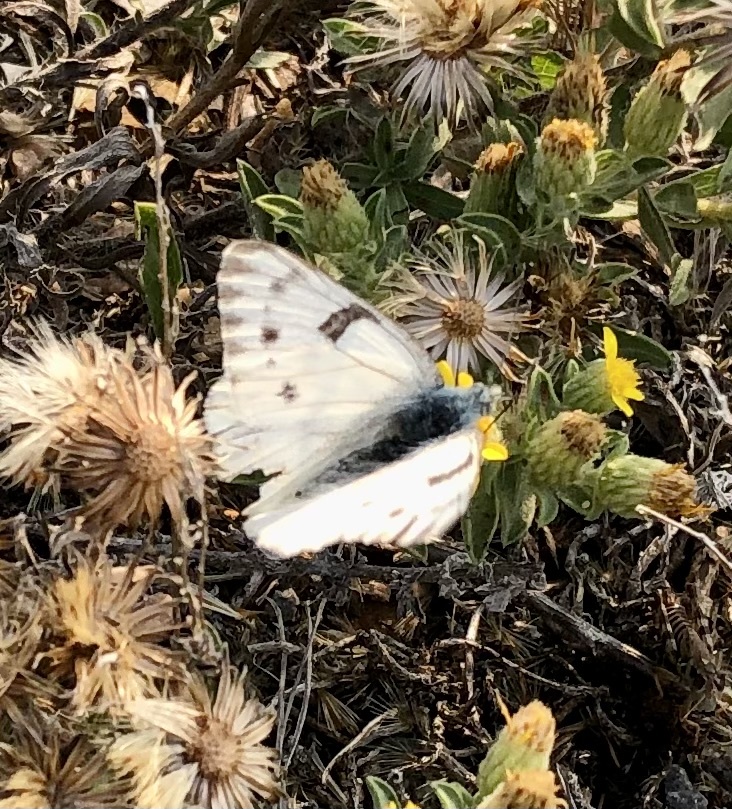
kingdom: Animalia
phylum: Arthropoda
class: Insecta
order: Lepidoptera
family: Pieridae
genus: Pontia
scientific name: Pontia occidentalis
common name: Western white
